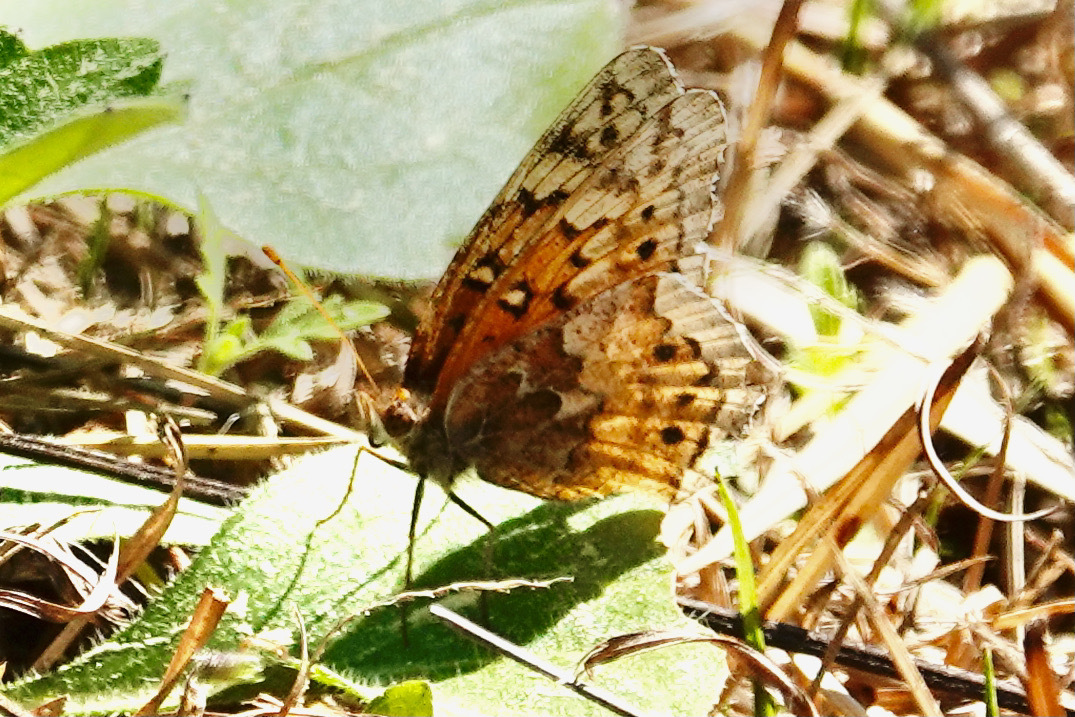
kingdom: Animalia
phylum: Arthropoda
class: Insecta
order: Lepidoptera
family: Nymphalidae
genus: Euptoieta
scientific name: Euptoieta claudia
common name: Variegated fritillary
